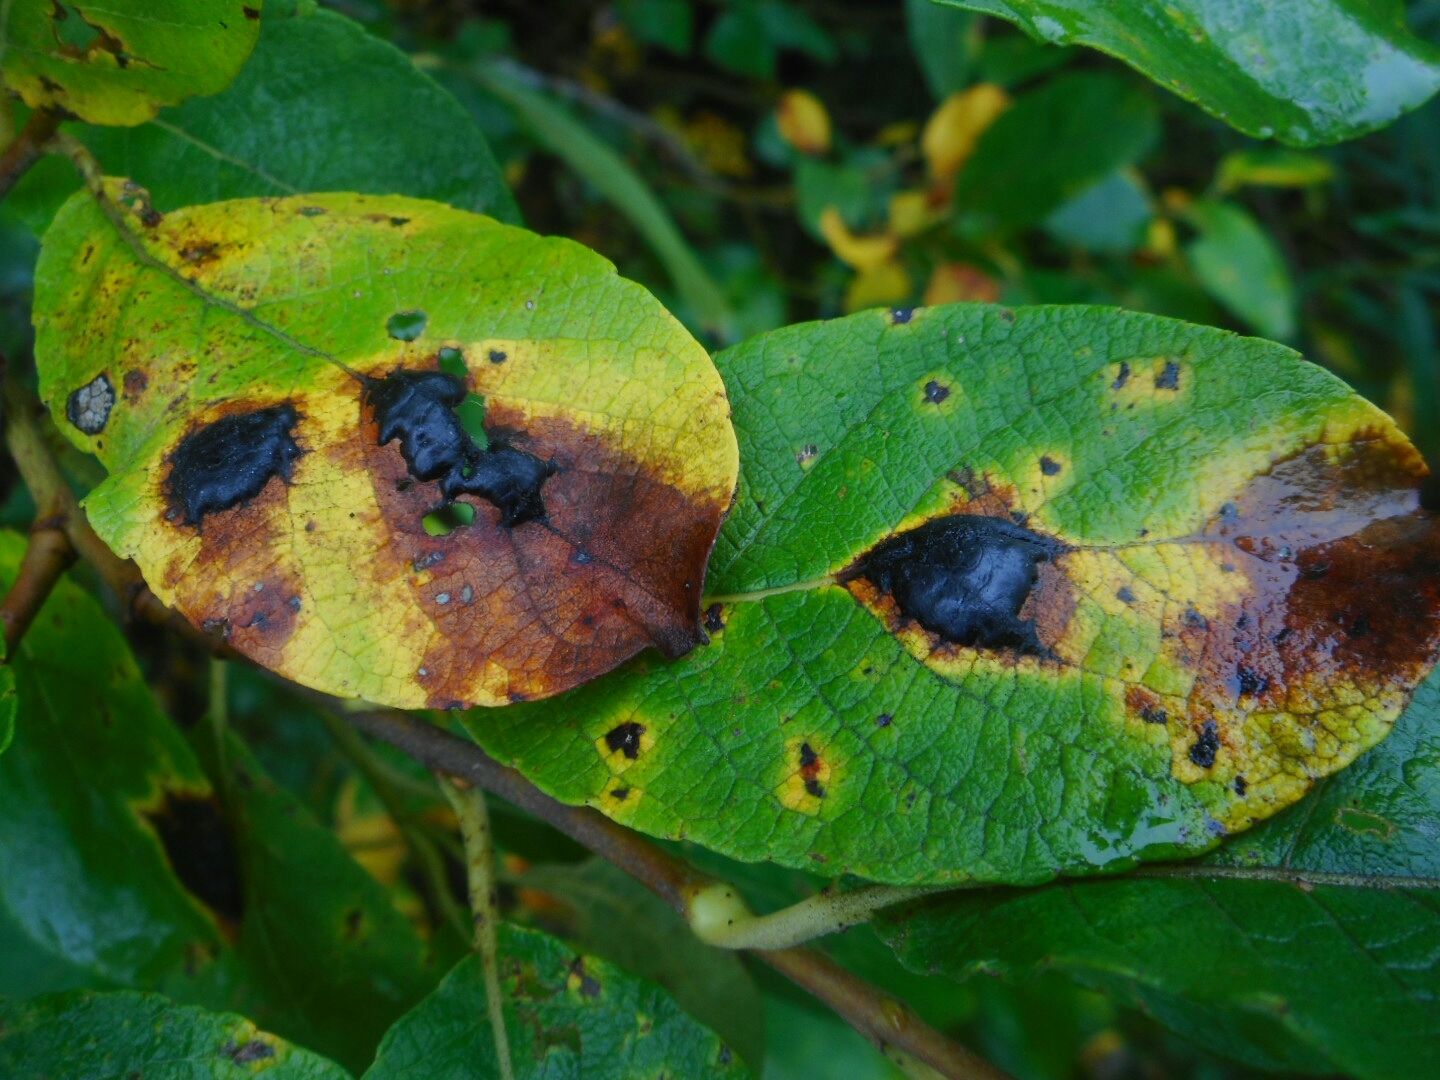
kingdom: Fungi
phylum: Ascomycota
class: Leotiomycetes
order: Rhytismatales
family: Rhytismataceae
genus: Rhytisma
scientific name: Rhytisma salicinum
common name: Willow tarspot
